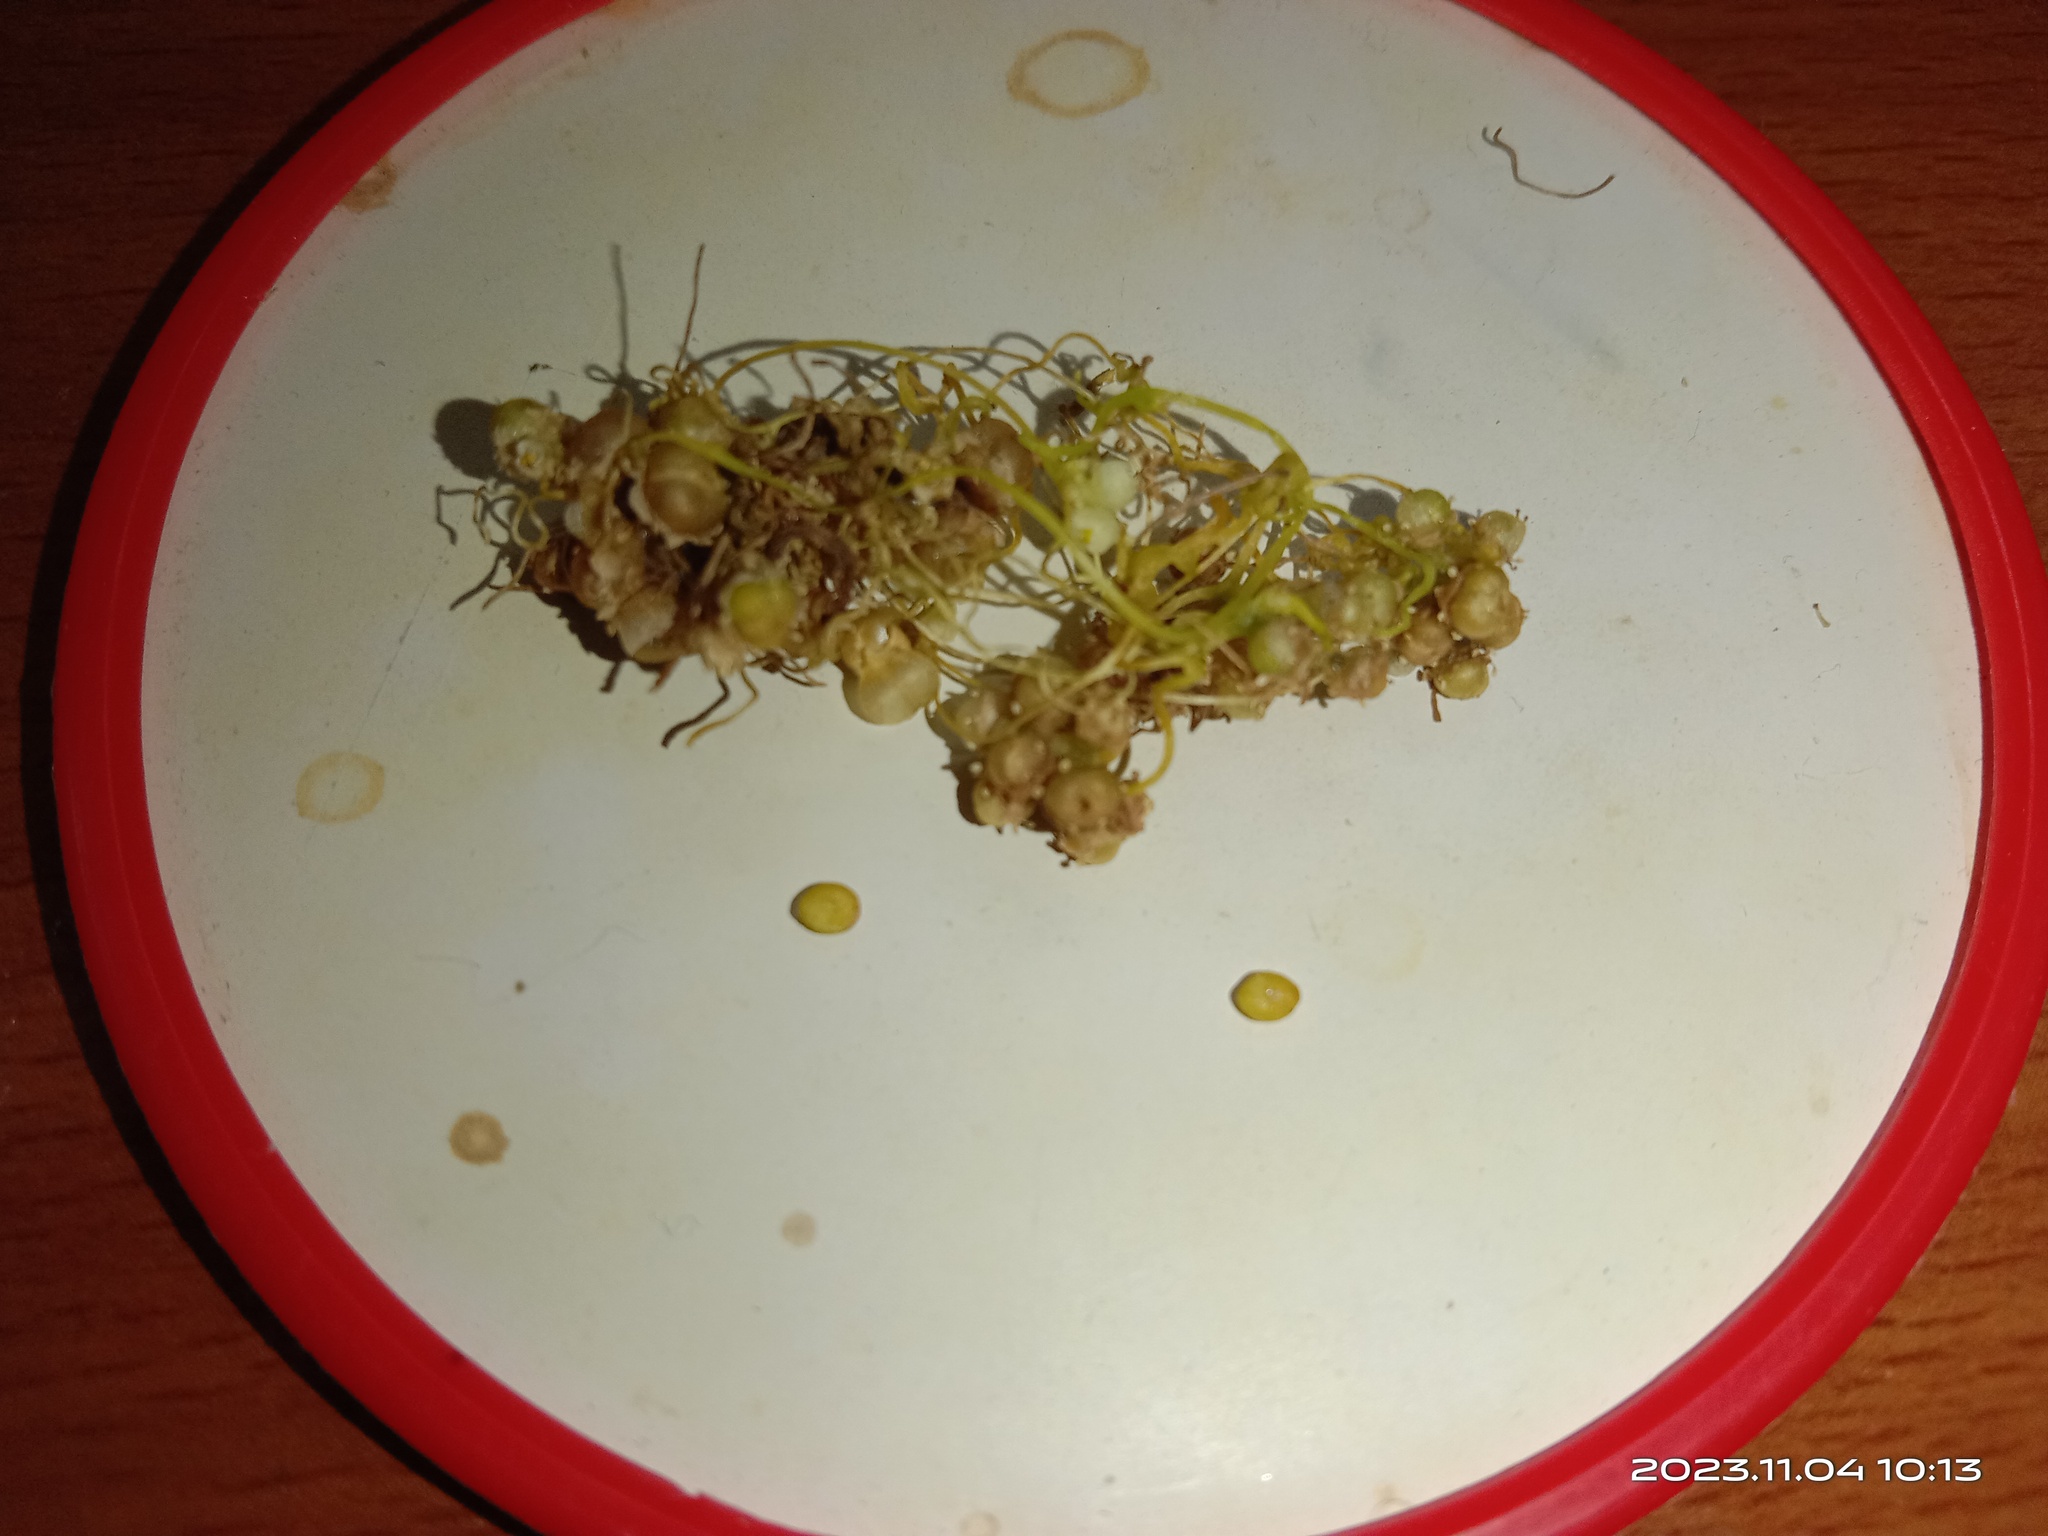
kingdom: Plantae
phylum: Tracheophyta
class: Magnoliopsida
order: Solanales
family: Convolvulaceae
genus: Cuscuta
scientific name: Cuscuta campestris
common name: Yellow dodder
